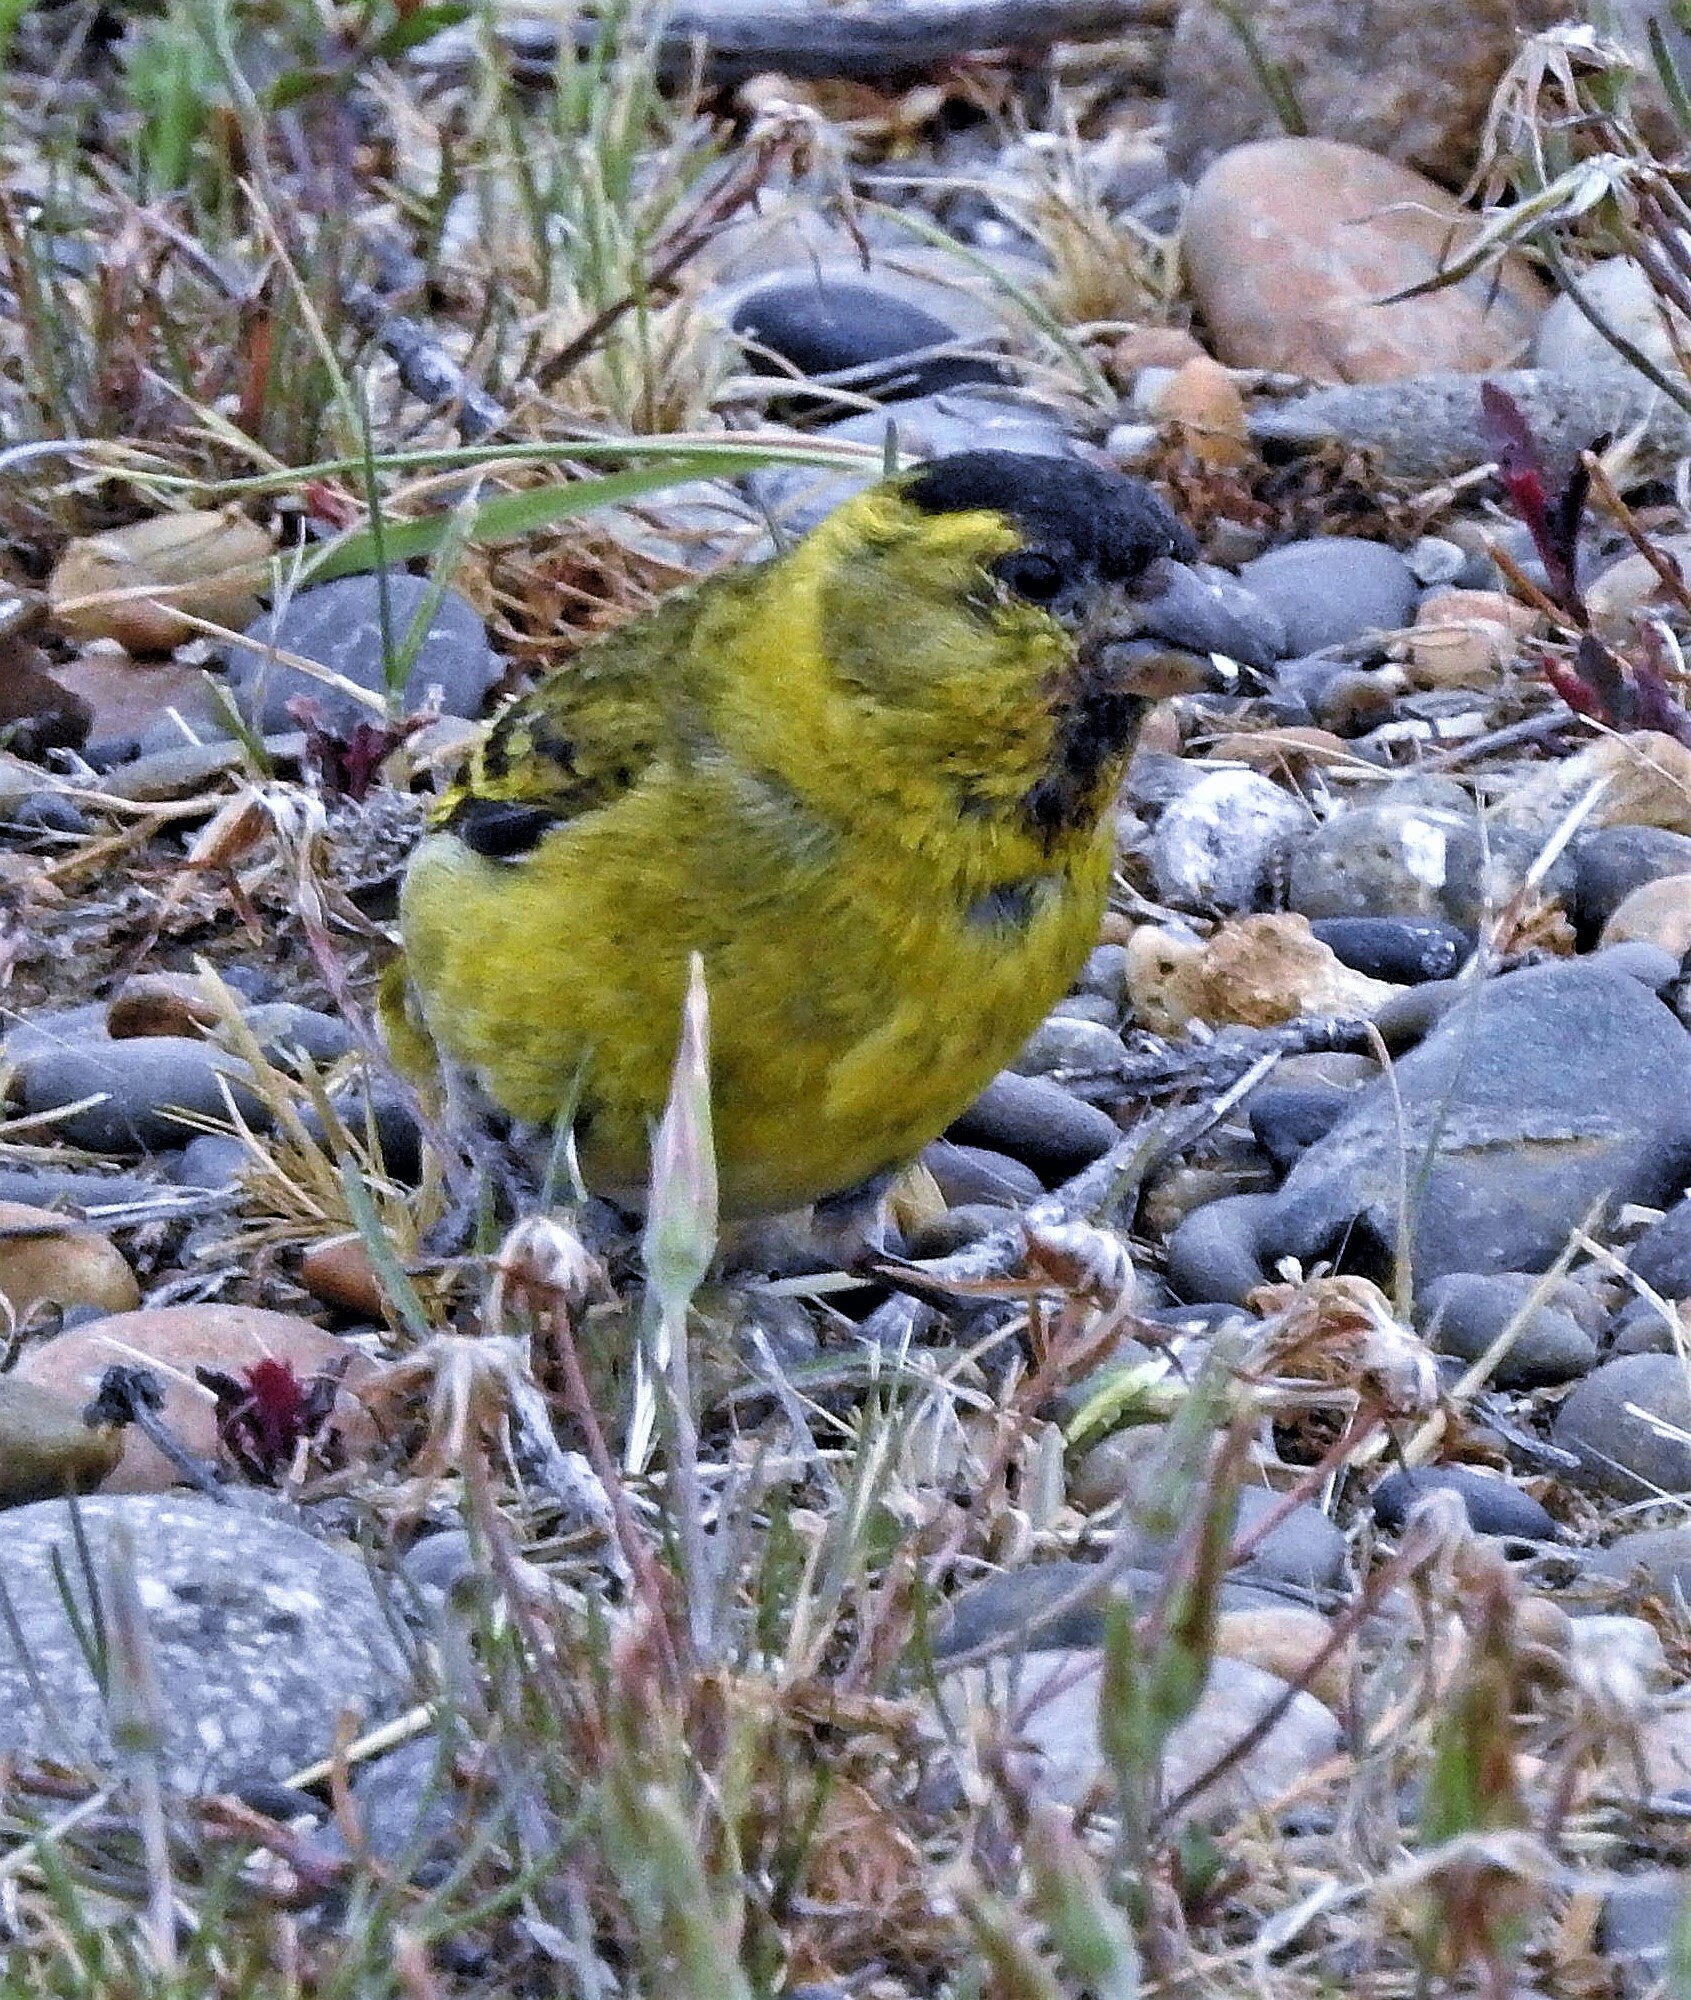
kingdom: Animalia
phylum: Chordata
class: Aves
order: Passeriformes
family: Fringillidae
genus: Spinus
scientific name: Spinus barbatus
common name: Black-chinned siskin
